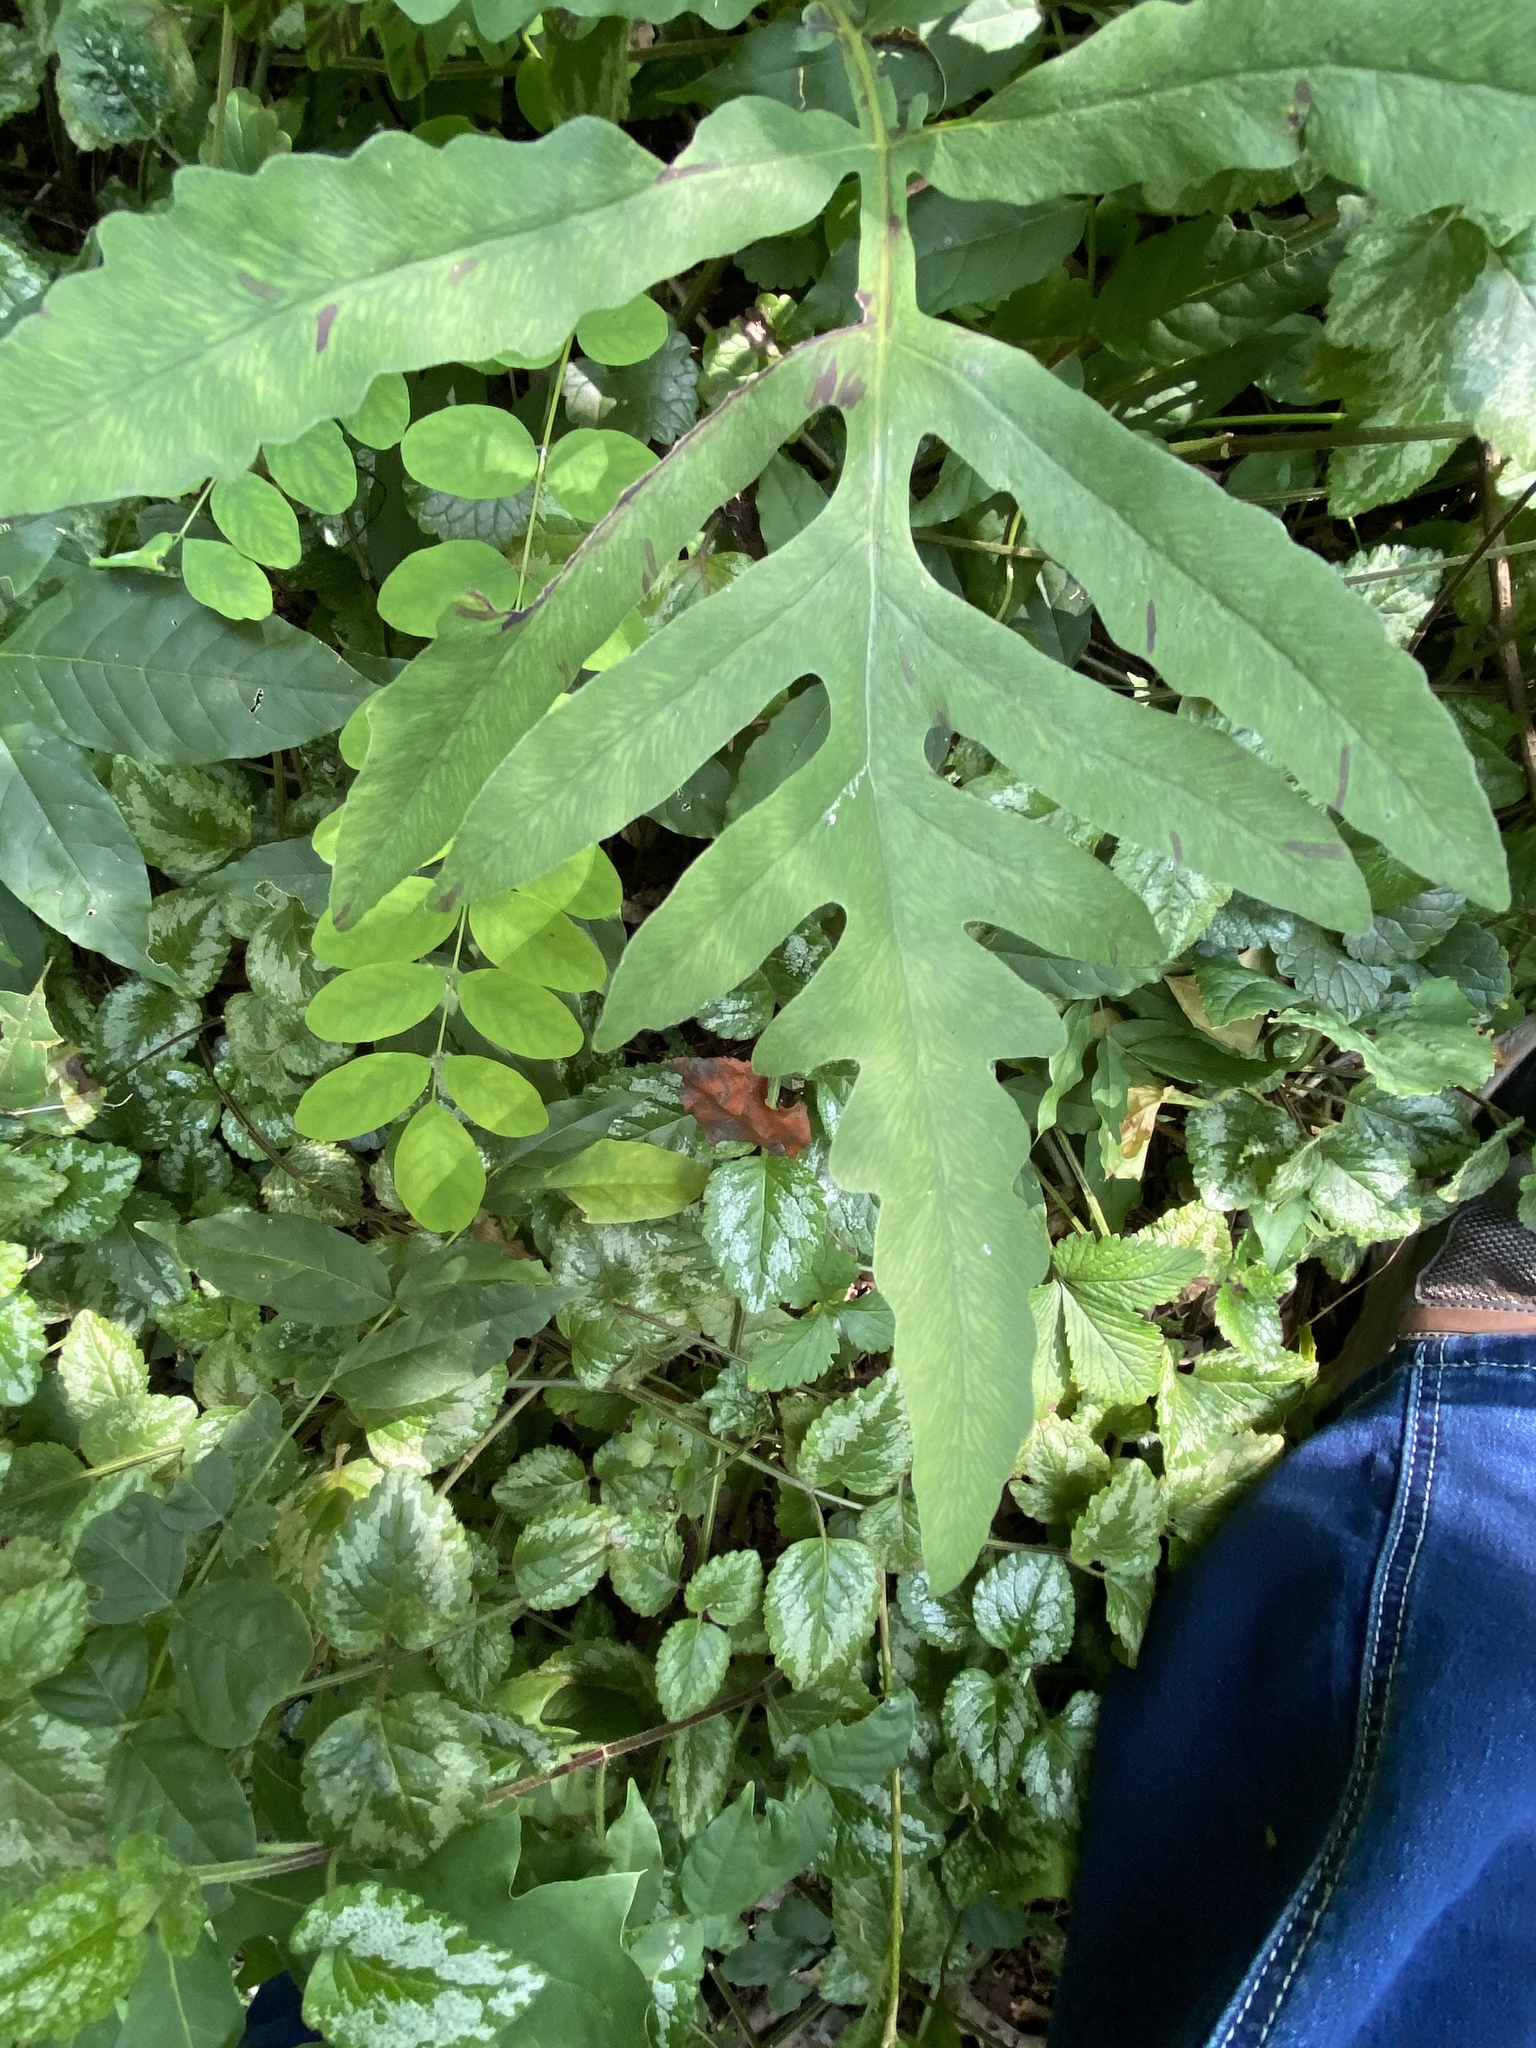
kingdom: Plantae
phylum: Tracheophyta
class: Polypodiopsida
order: Polypodiales
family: Onocleaceae
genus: Onoclea
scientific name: Onoclea sensibilis
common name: Sensitive fern
